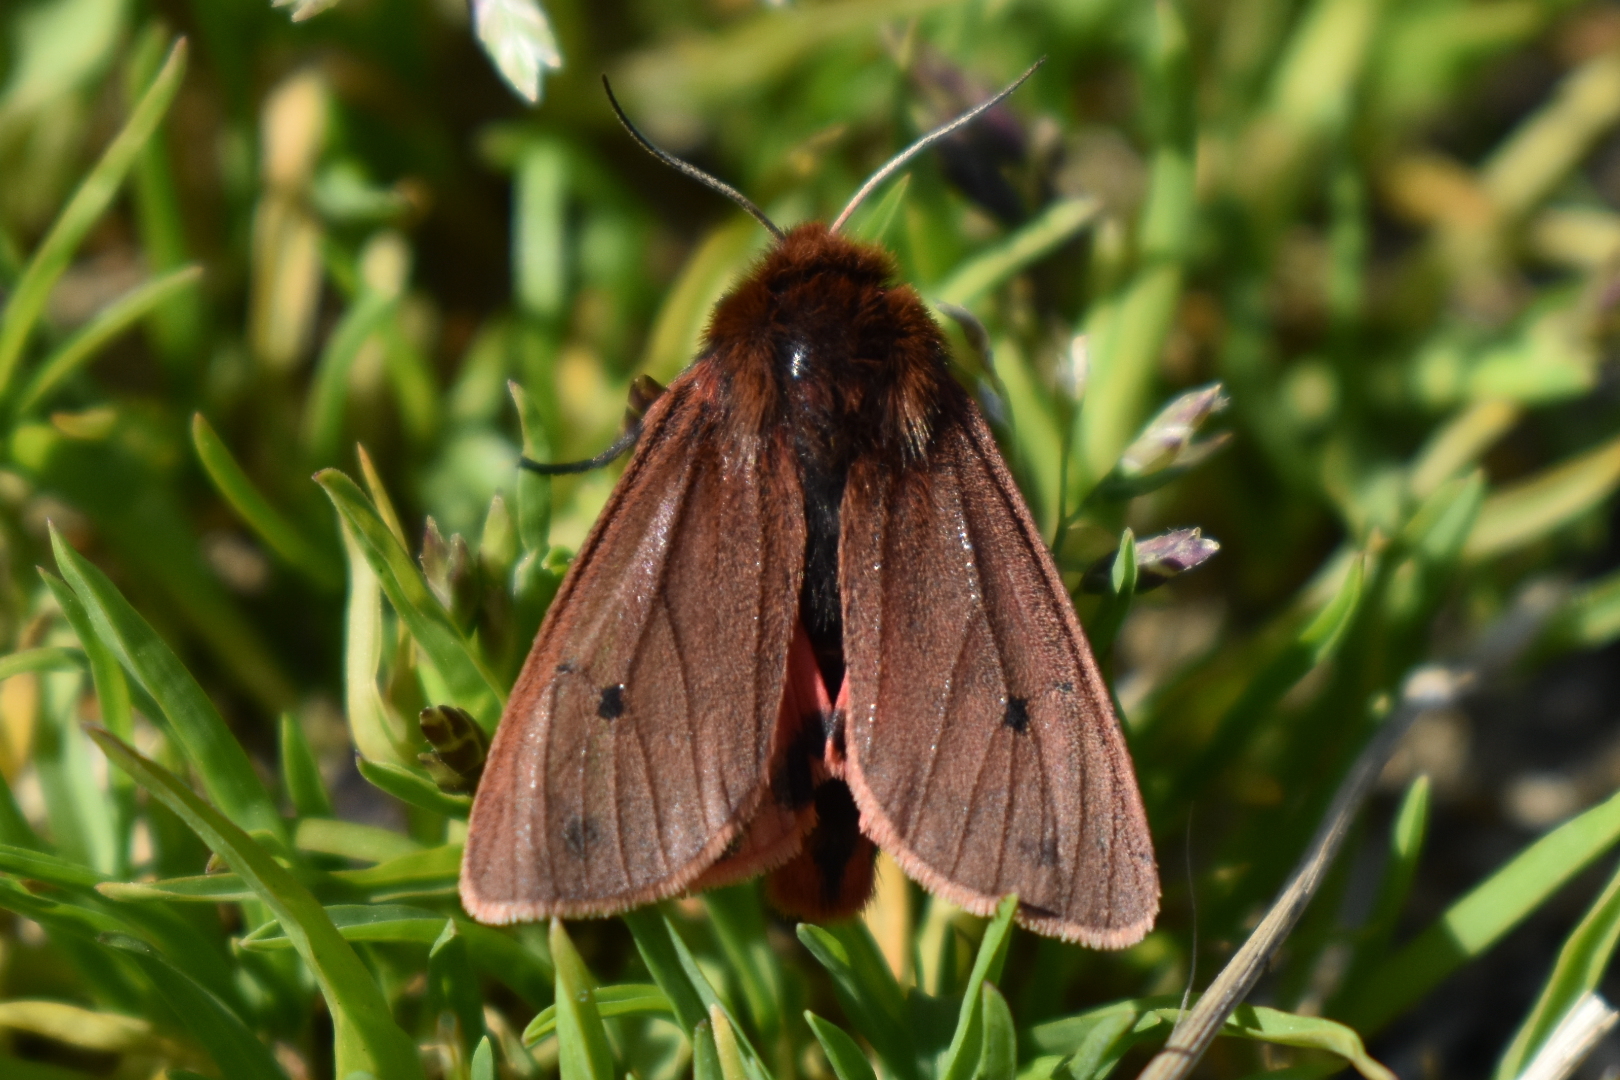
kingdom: Animalia
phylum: Arthropoda
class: Insecta
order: Lepidoptera
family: Erebidae
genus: Phragmatobia
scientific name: Phragmatobia fuliginosa
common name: Ruby tiger
